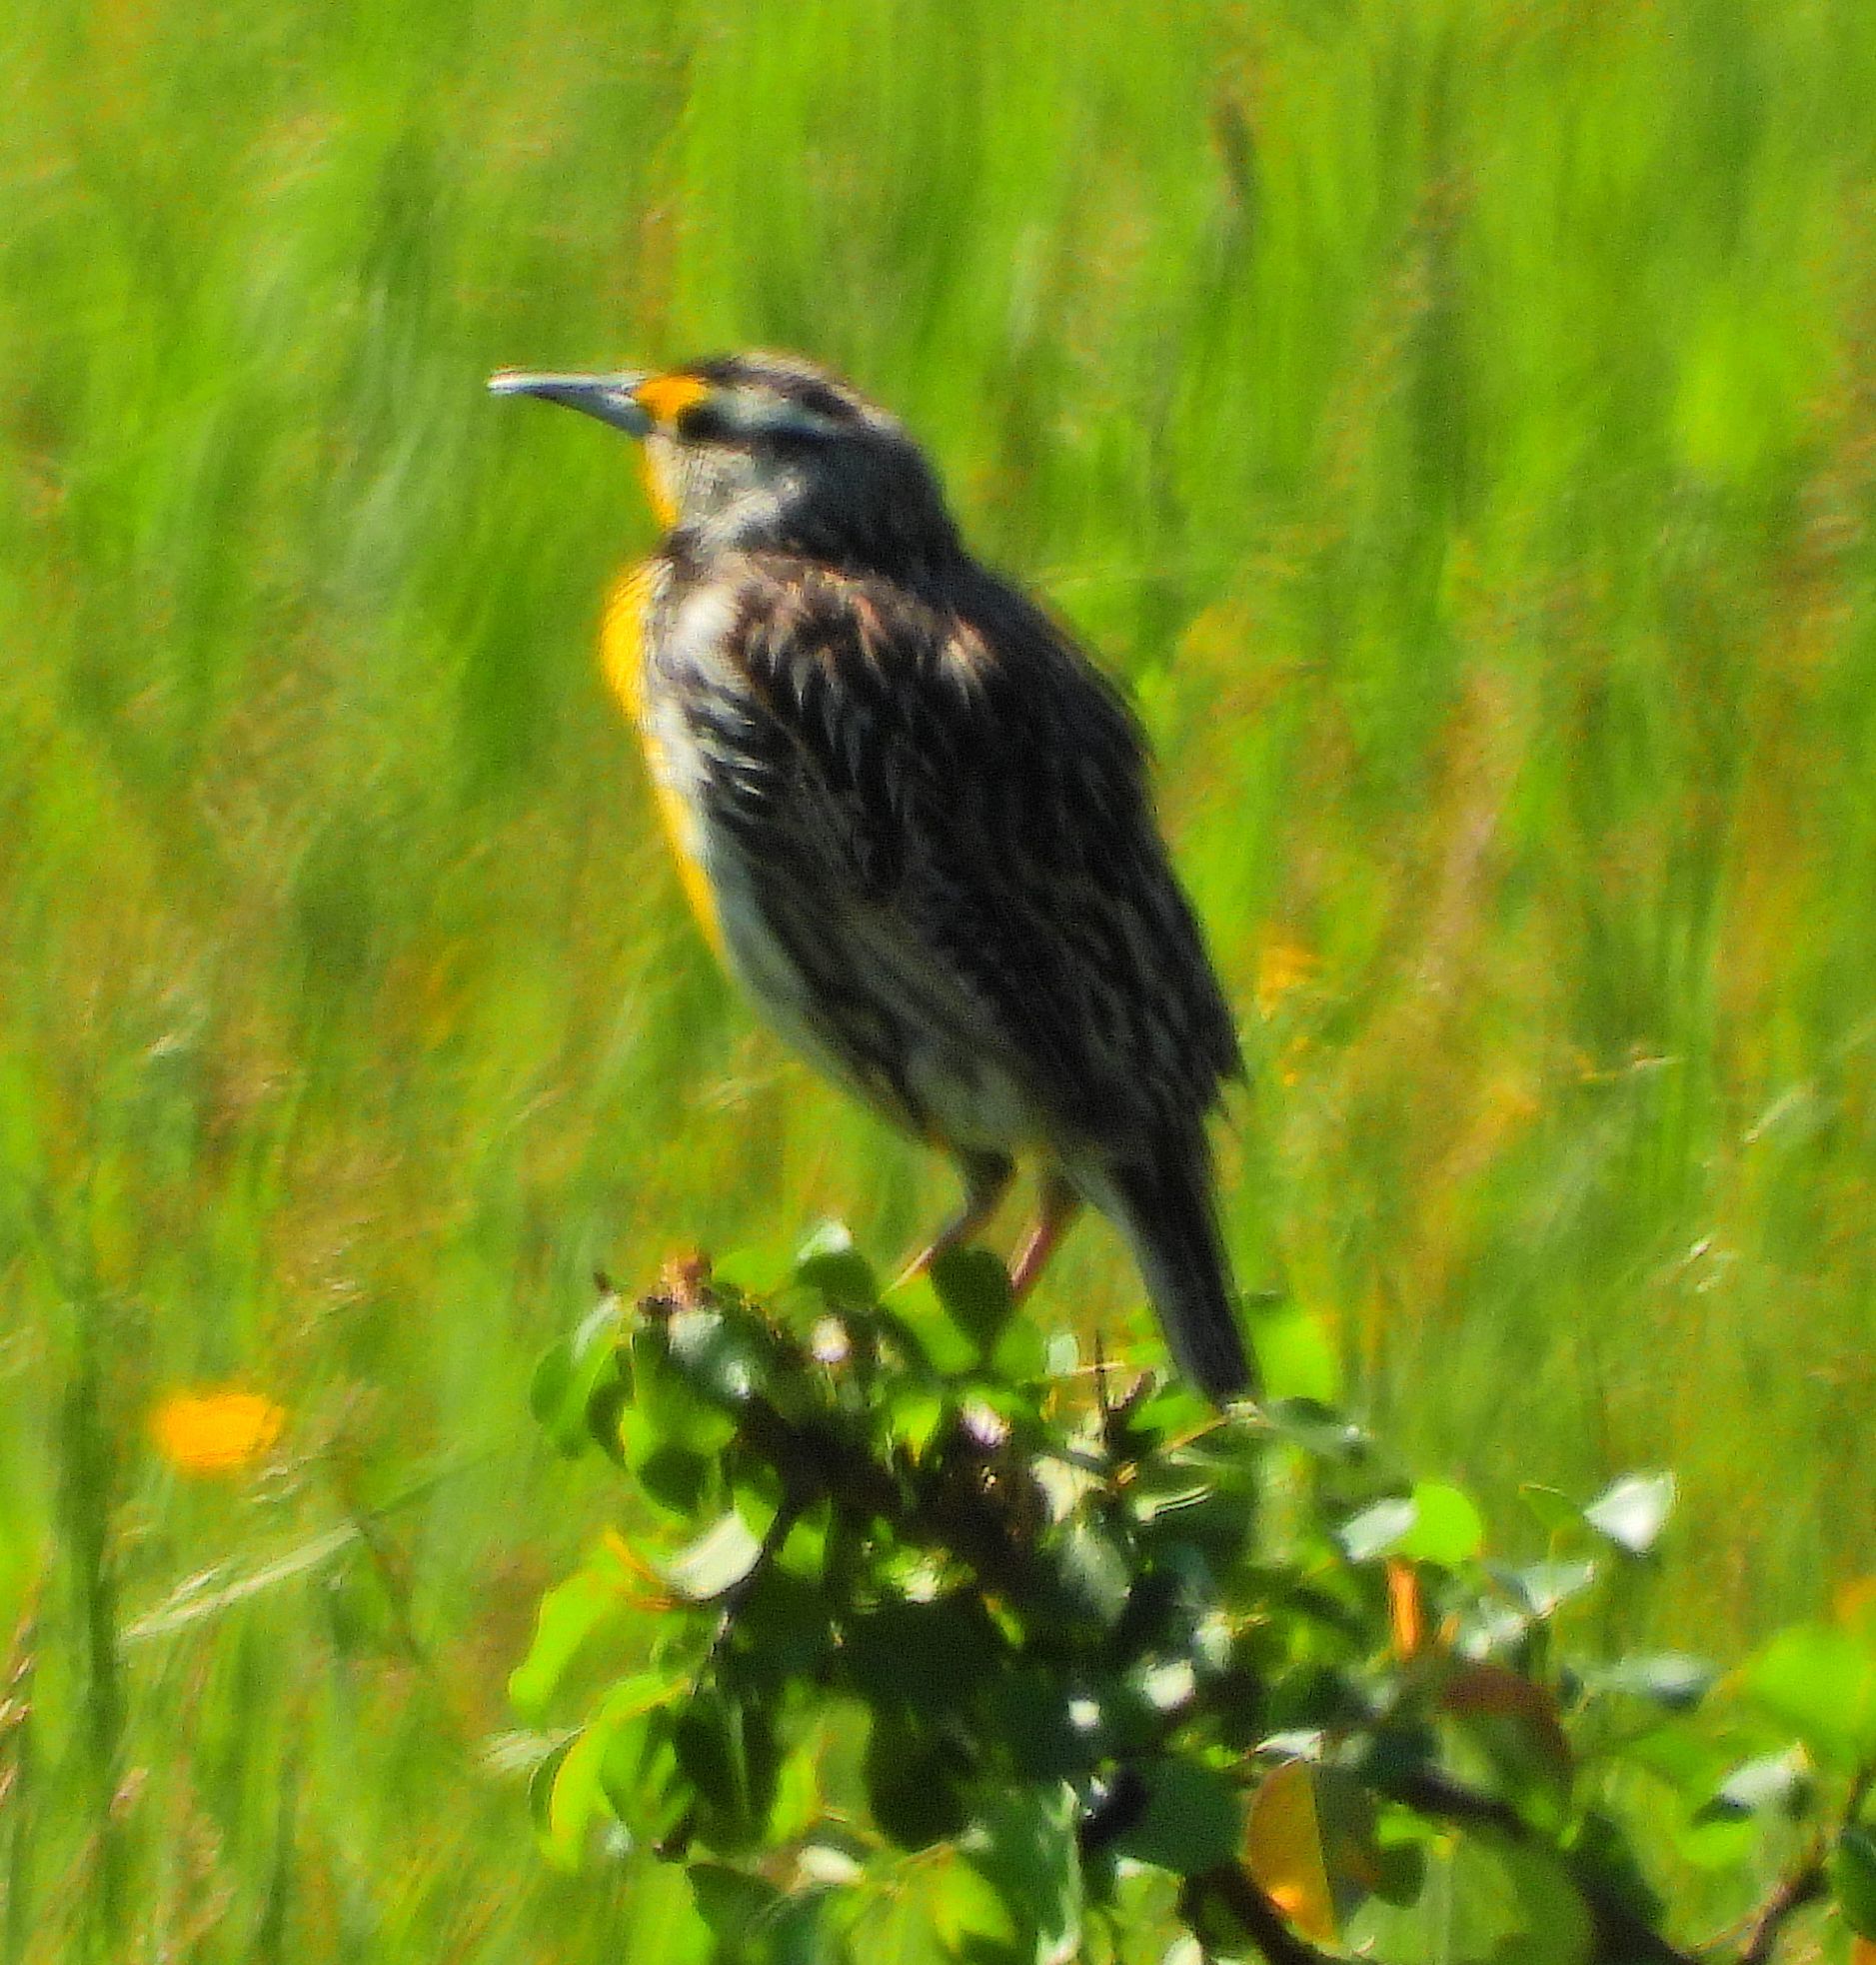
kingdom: Animalia
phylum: Chordata
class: Aves
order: Passeriformes
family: Icteridae
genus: Sturnella
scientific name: Sturnella magna
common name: Eastern meadowlark
